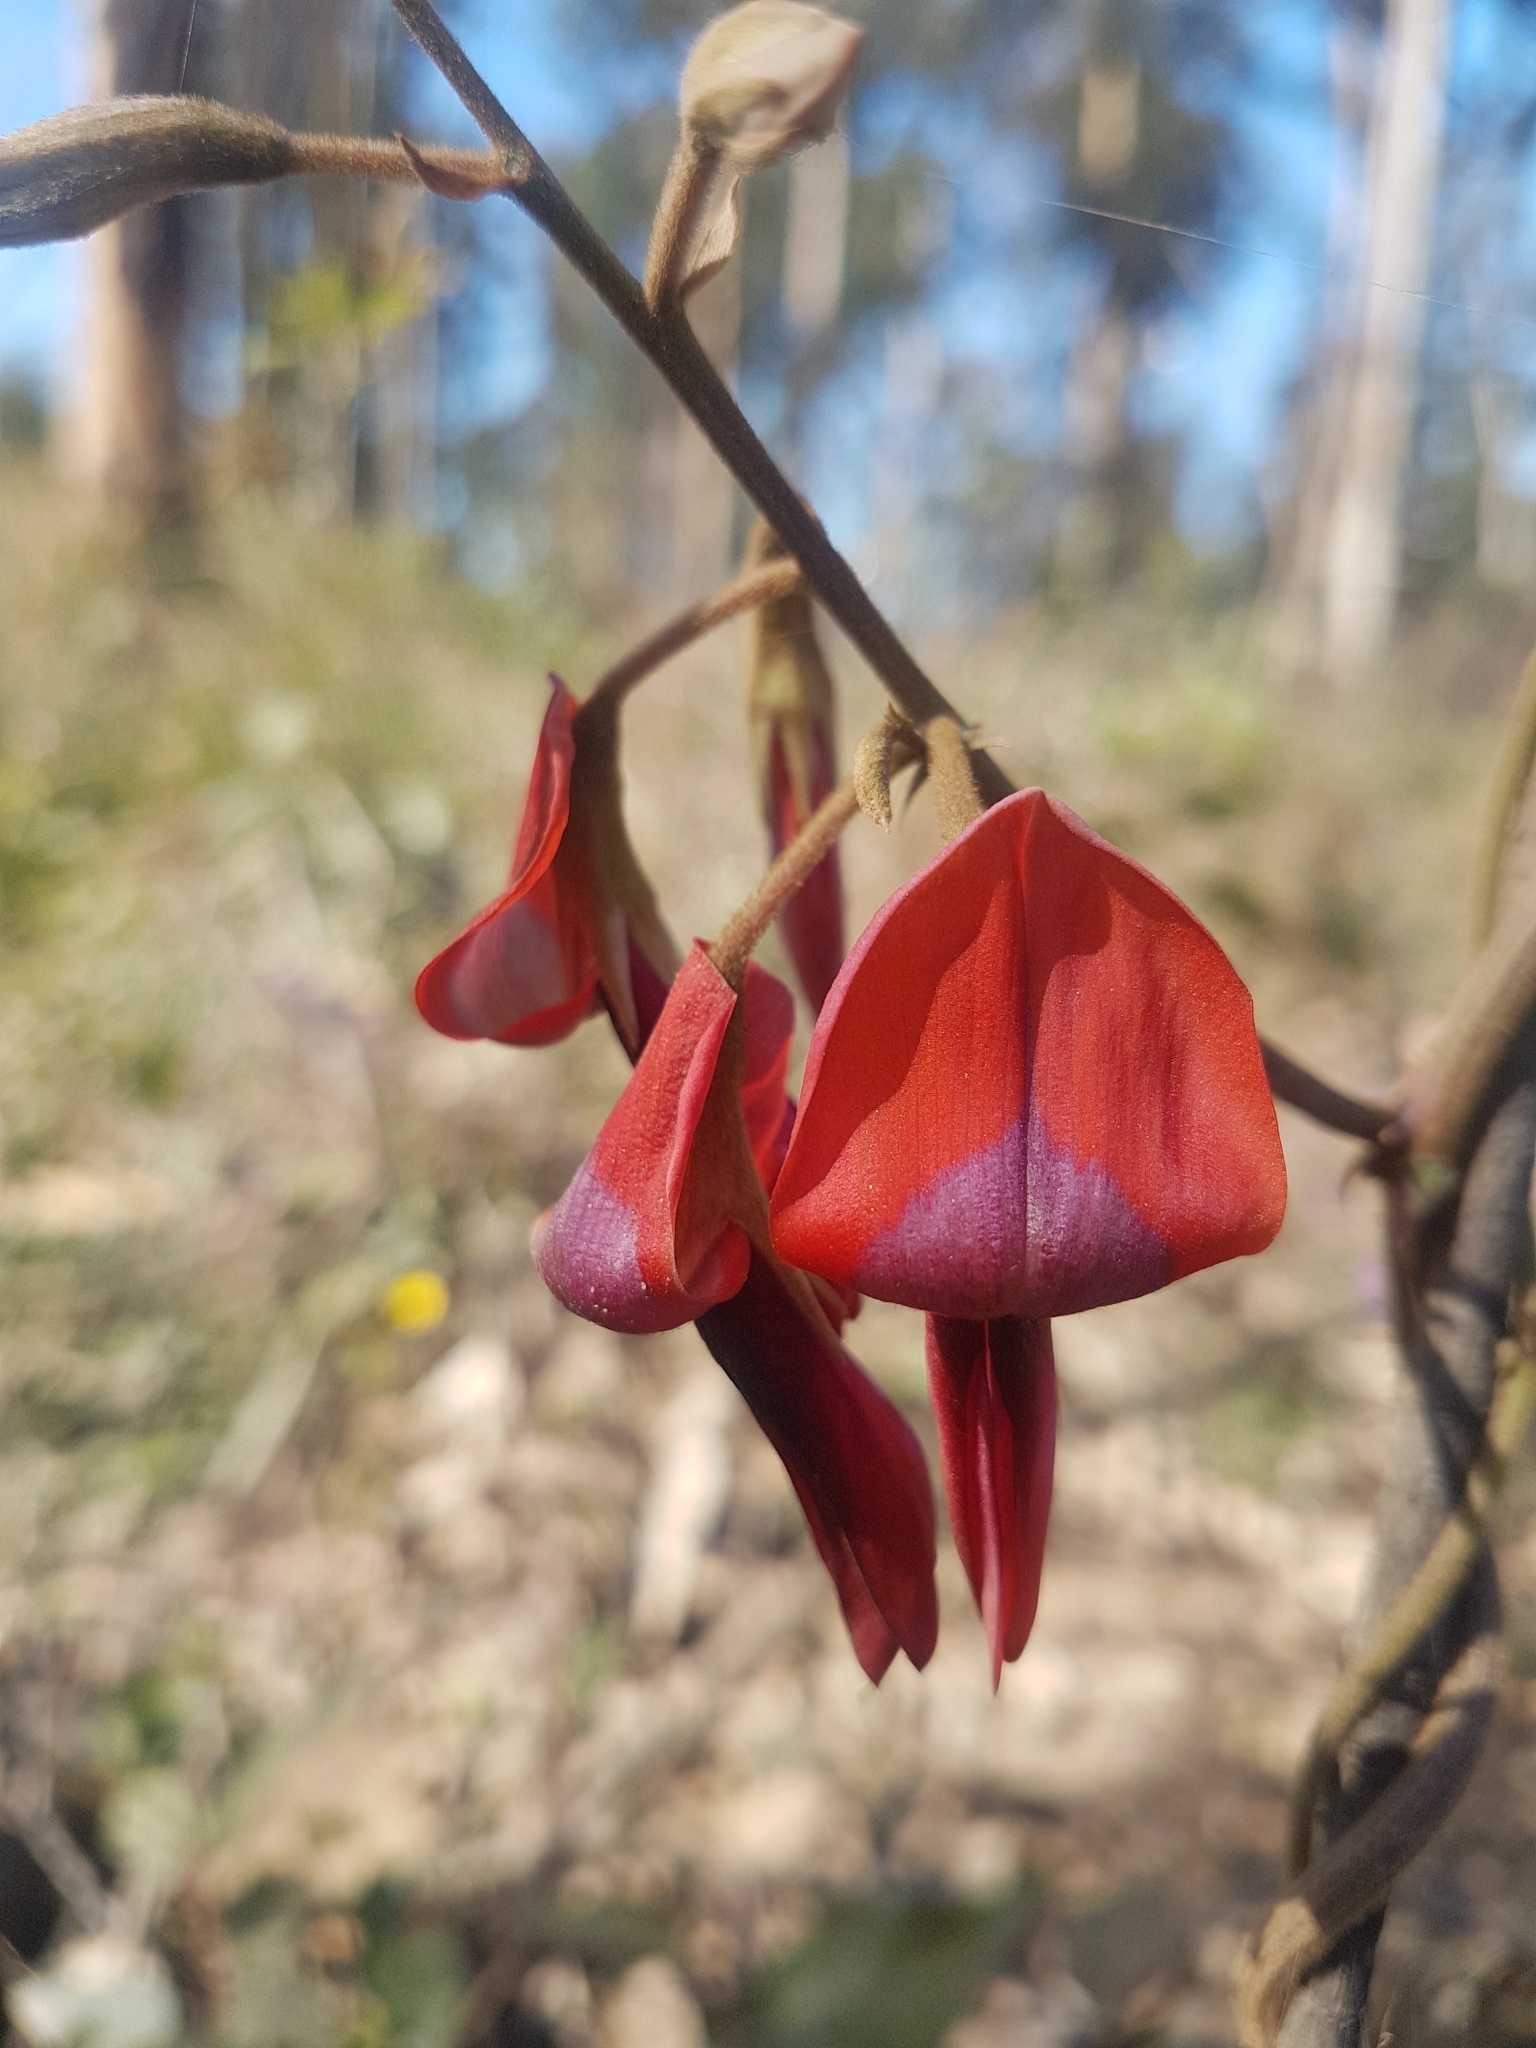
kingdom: Plantae
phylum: Tracheophyta
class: Magnoliopsida
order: Fabales
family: Fabaceae
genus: Kennedia
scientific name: Kennedia rubicunda
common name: Red kennedy-pea
